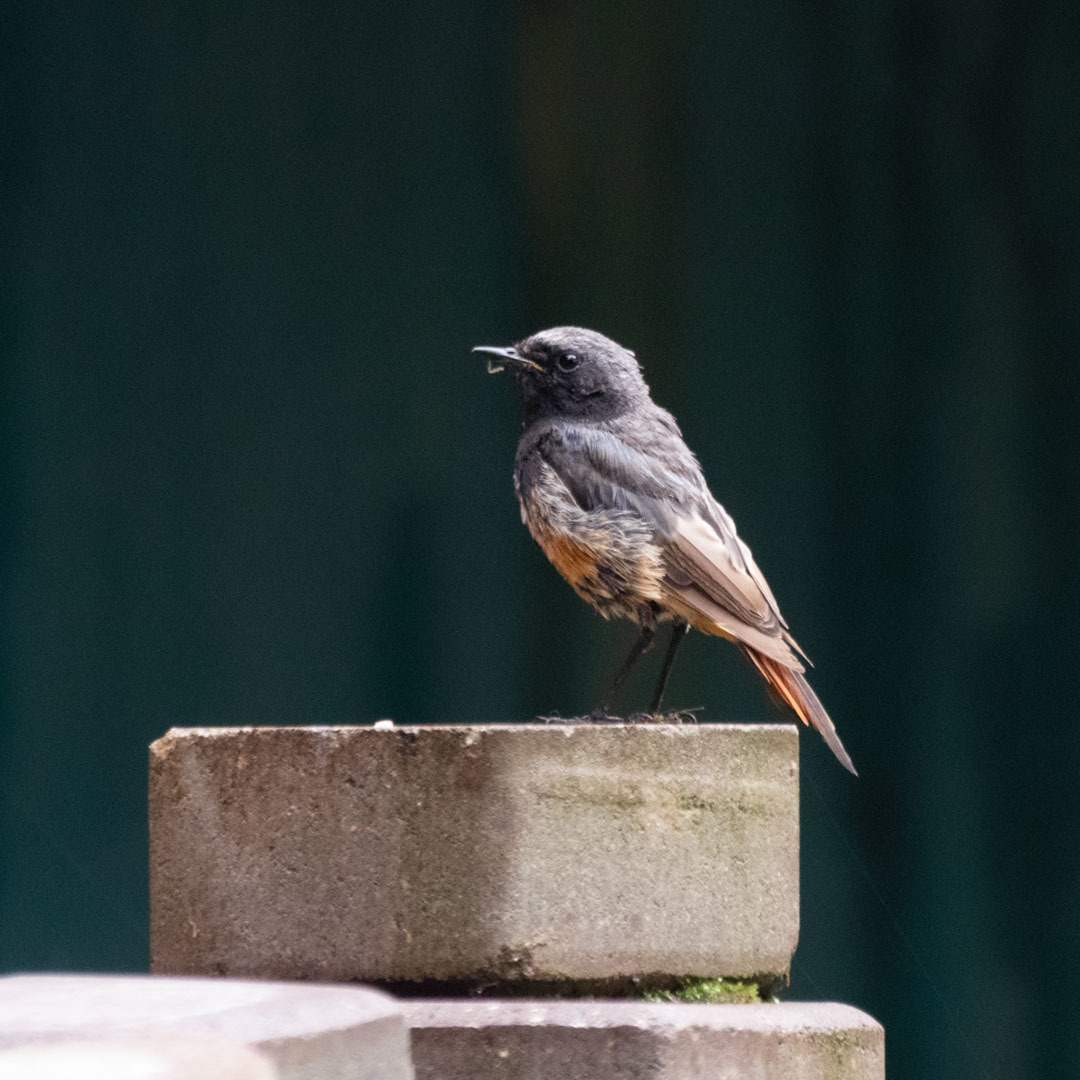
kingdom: Animalia
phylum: Chordata
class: Aves
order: Passeriformes
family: Muscicapidae
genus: Phoenicurus
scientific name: Phoenicurus ochruros
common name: Black redstart
